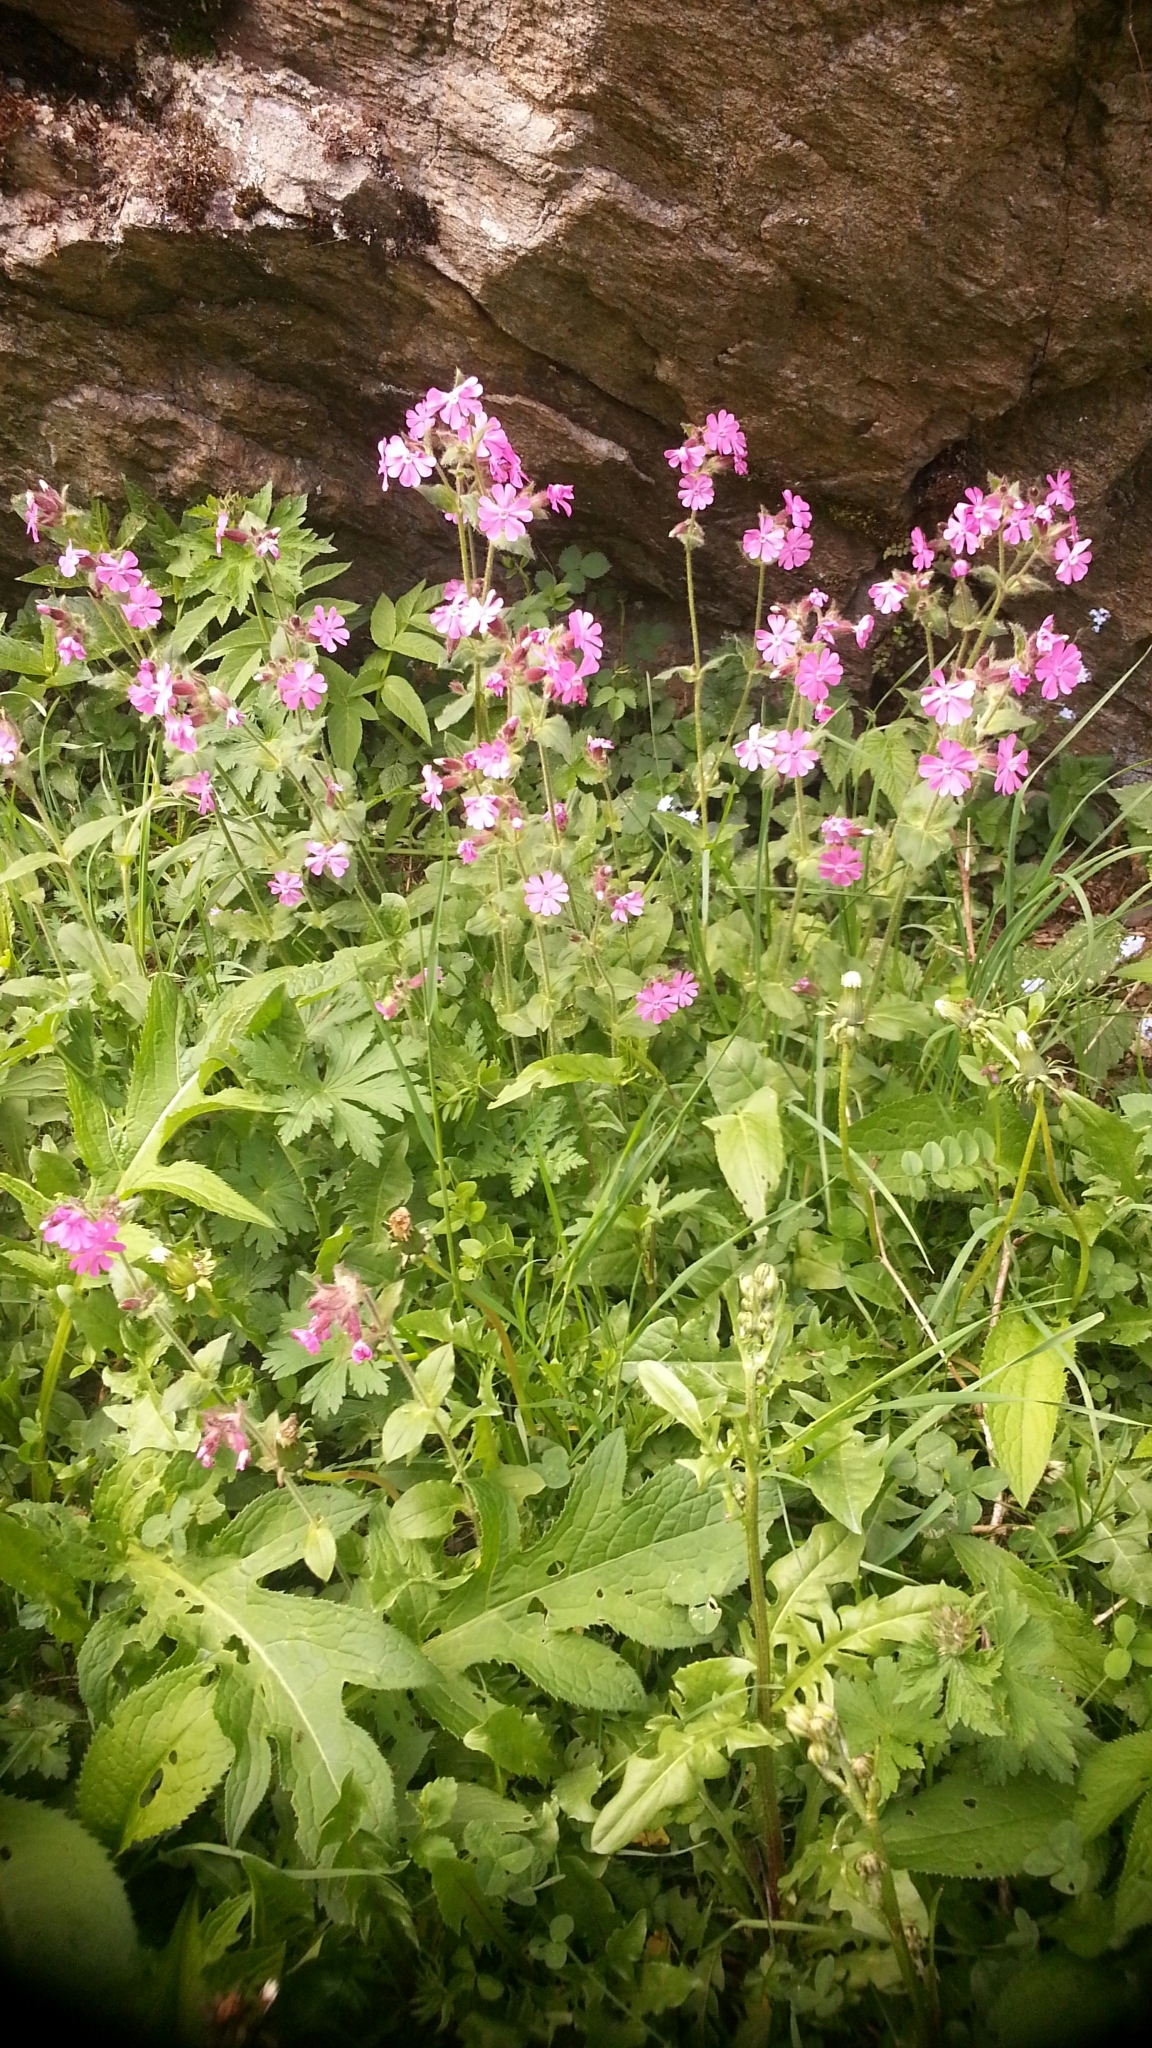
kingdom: Plantae
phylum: Tracheophyta
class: Magnoliopsida
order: Caryophyllales
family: Caryophyllaceae
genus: Silene
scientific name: Silene dioica
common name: Red campion
